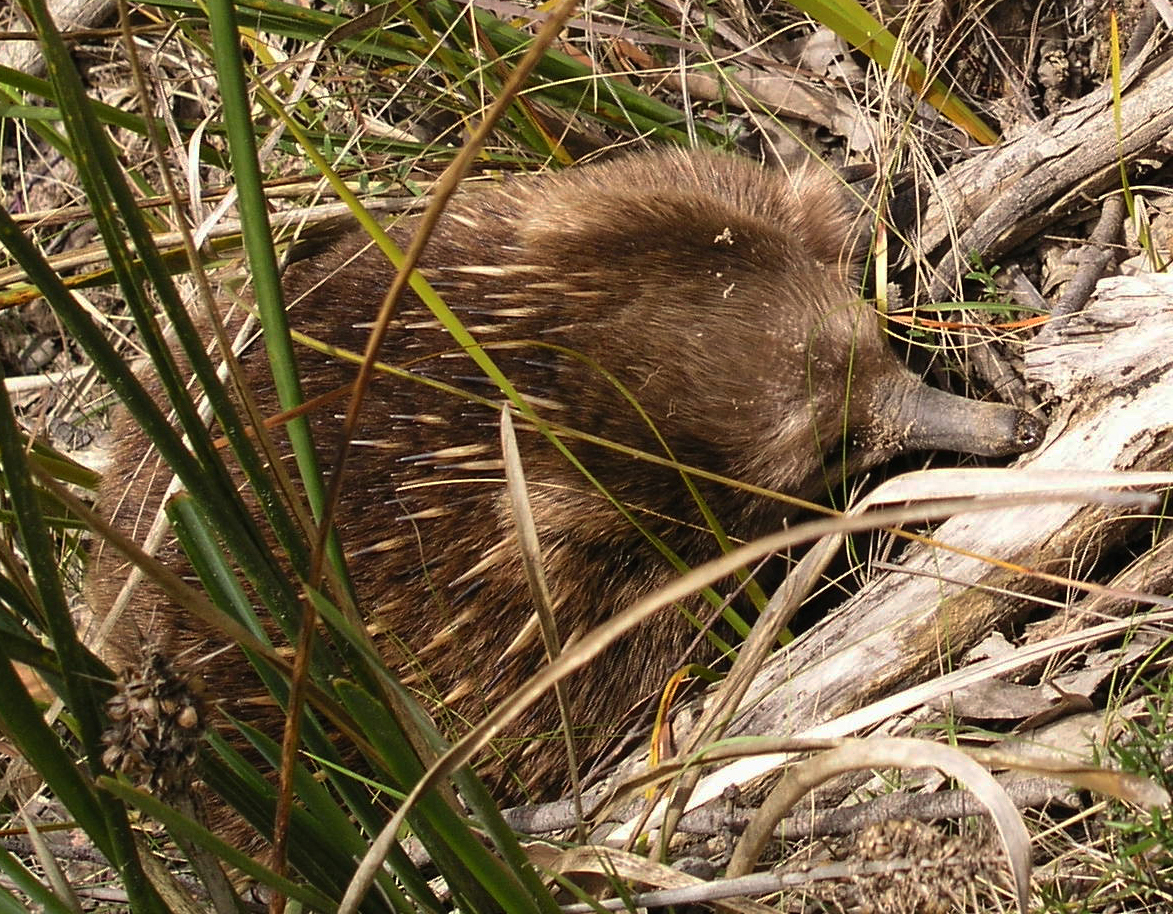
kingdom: Animalia
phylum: Chordata
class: Mammalia
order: Monotremata
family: Tachyglossidae
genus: Tachyglossus
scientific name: Tachyglossus aculeatus
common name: Short-beaked echidna
